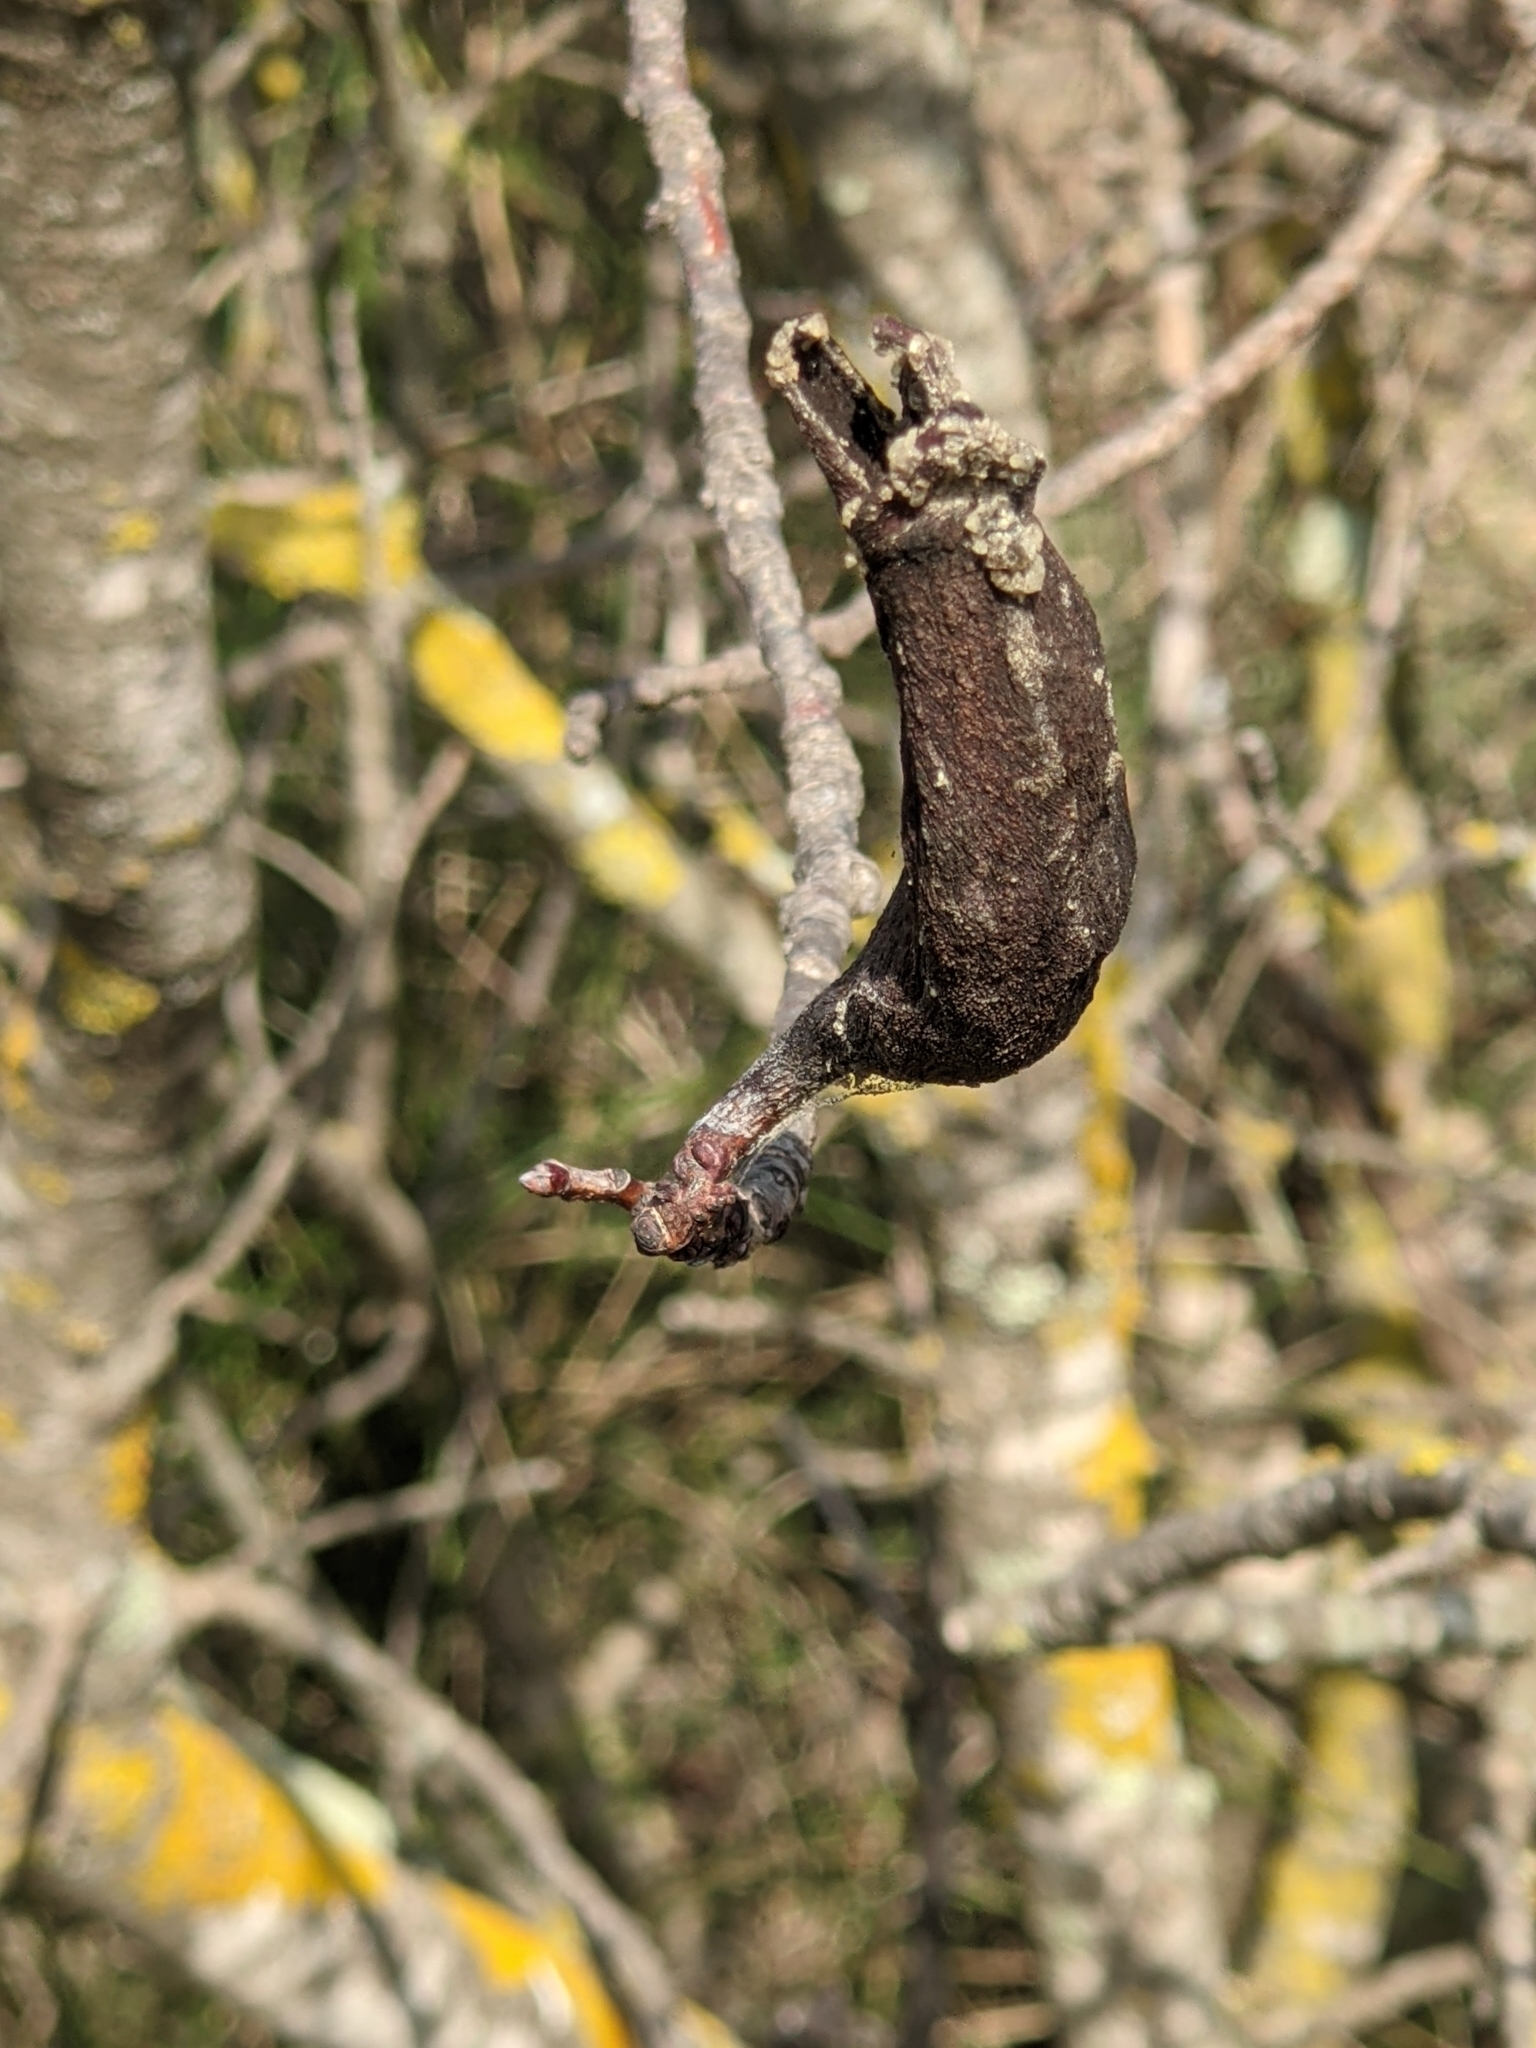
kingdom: Plantae
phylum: Tracheophyta
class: Magnoliopsida
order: Sapindales
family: Anacardiaceae
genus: Pistacia
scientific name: Pistacia terebinthus
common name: Terebinth
